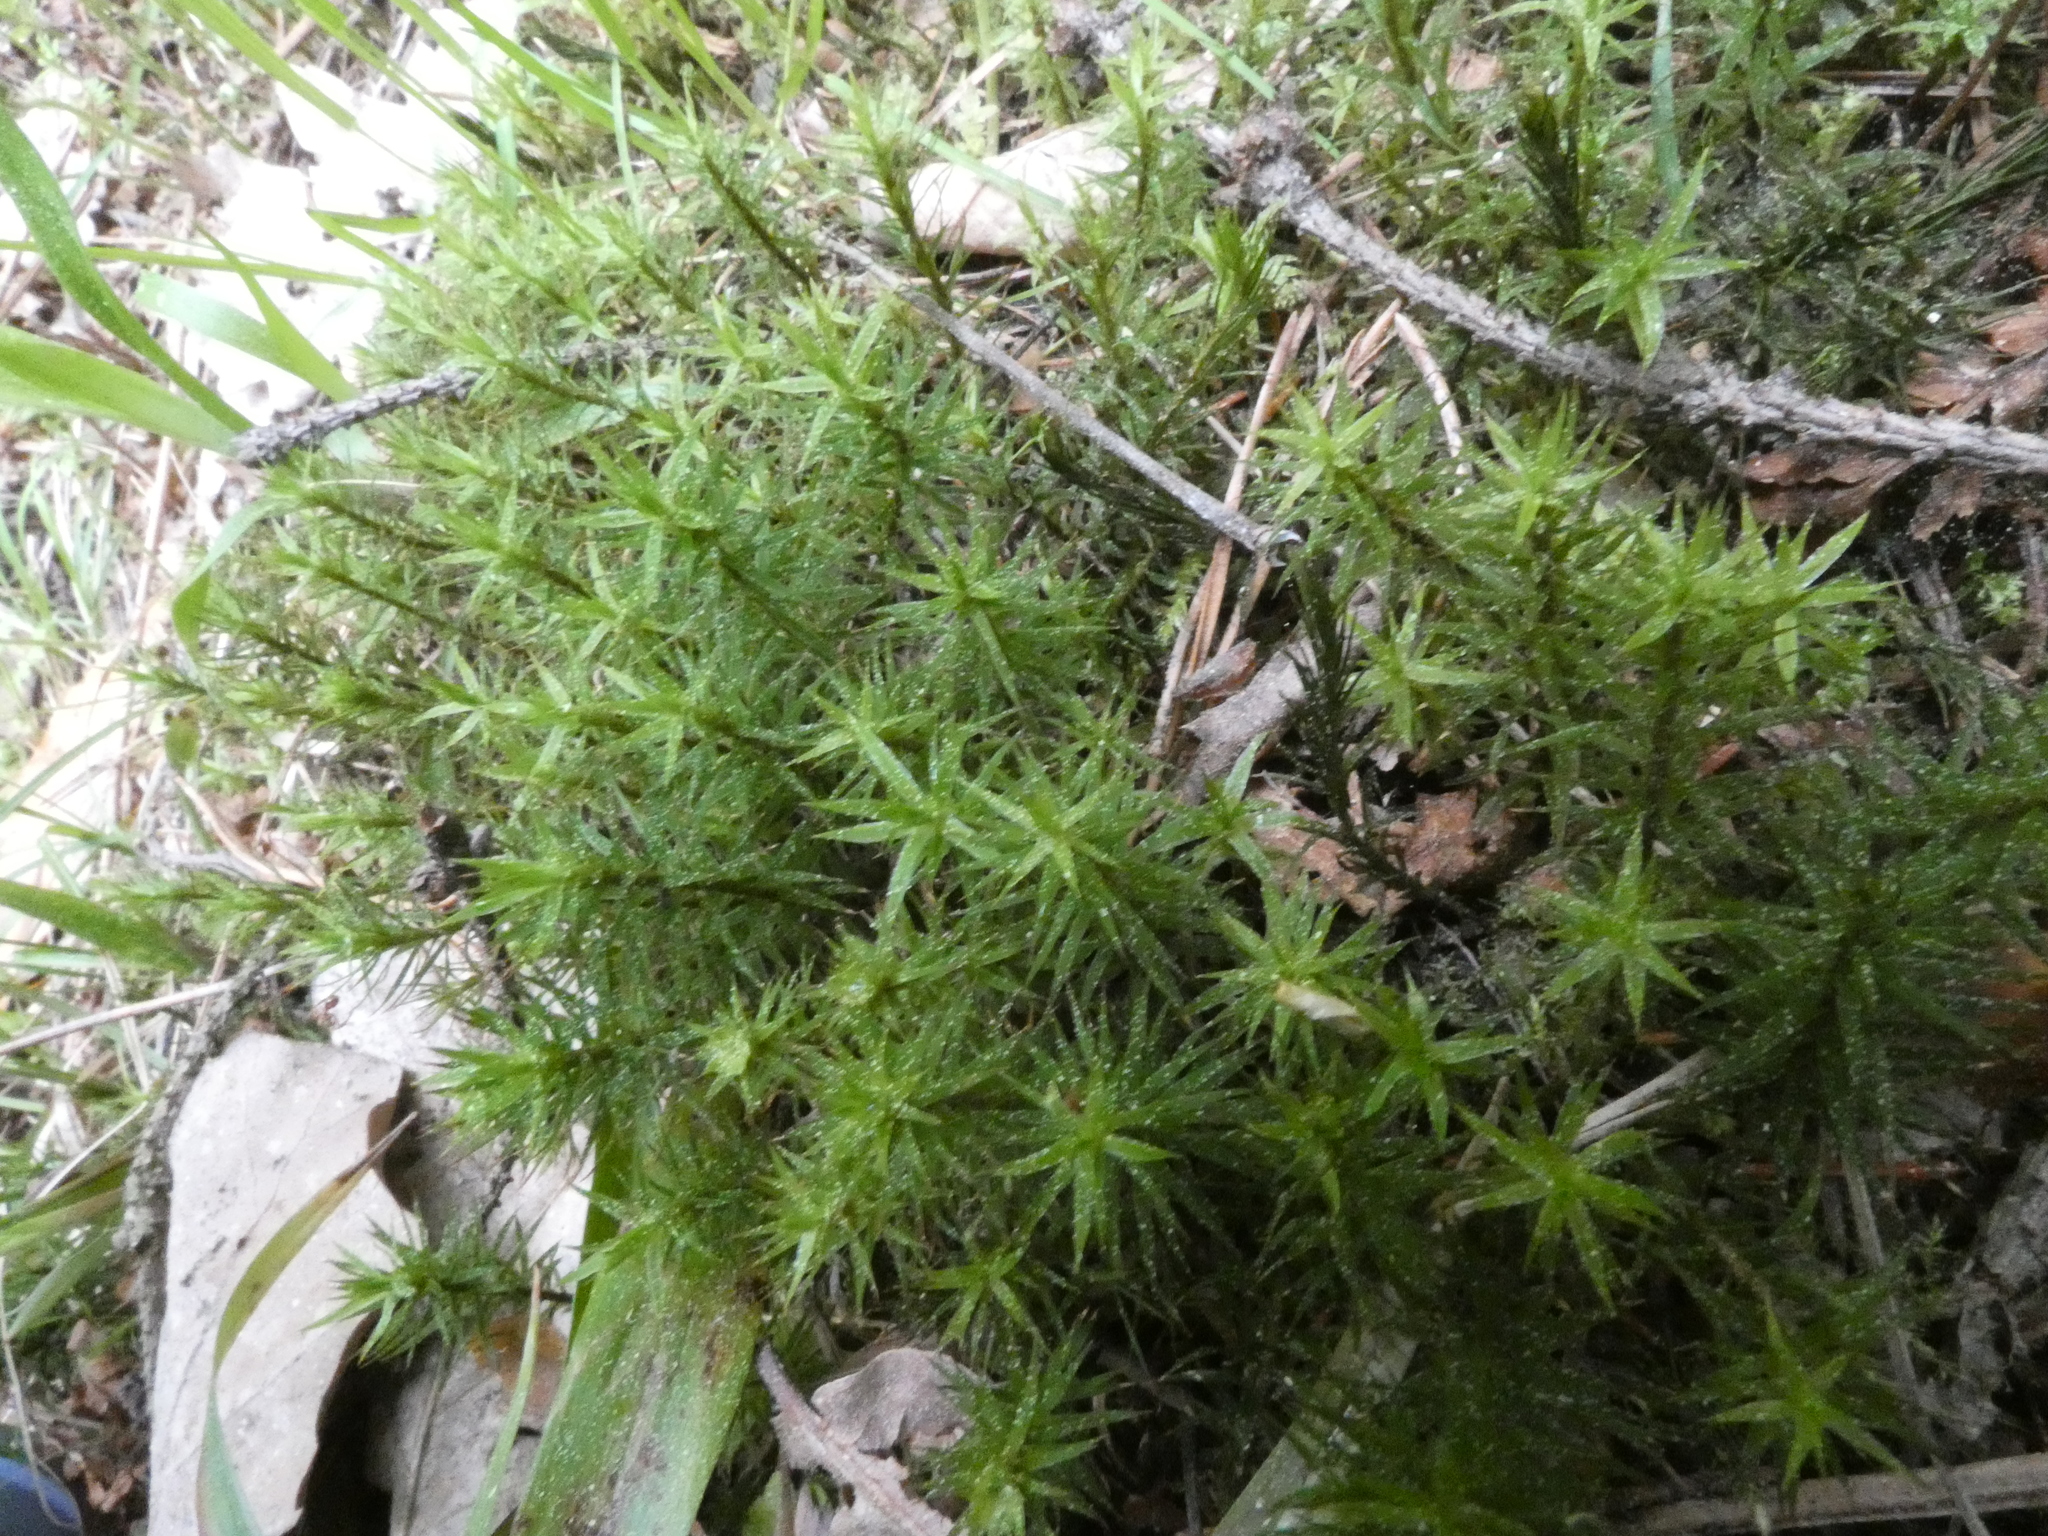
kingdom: Plantae
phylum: Bryophyta
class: Polytrichopsida
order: Polytrichales
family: Polytrichaceae
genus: Atrichum
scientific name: Atrichum undulatum
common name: Common smoothcap
